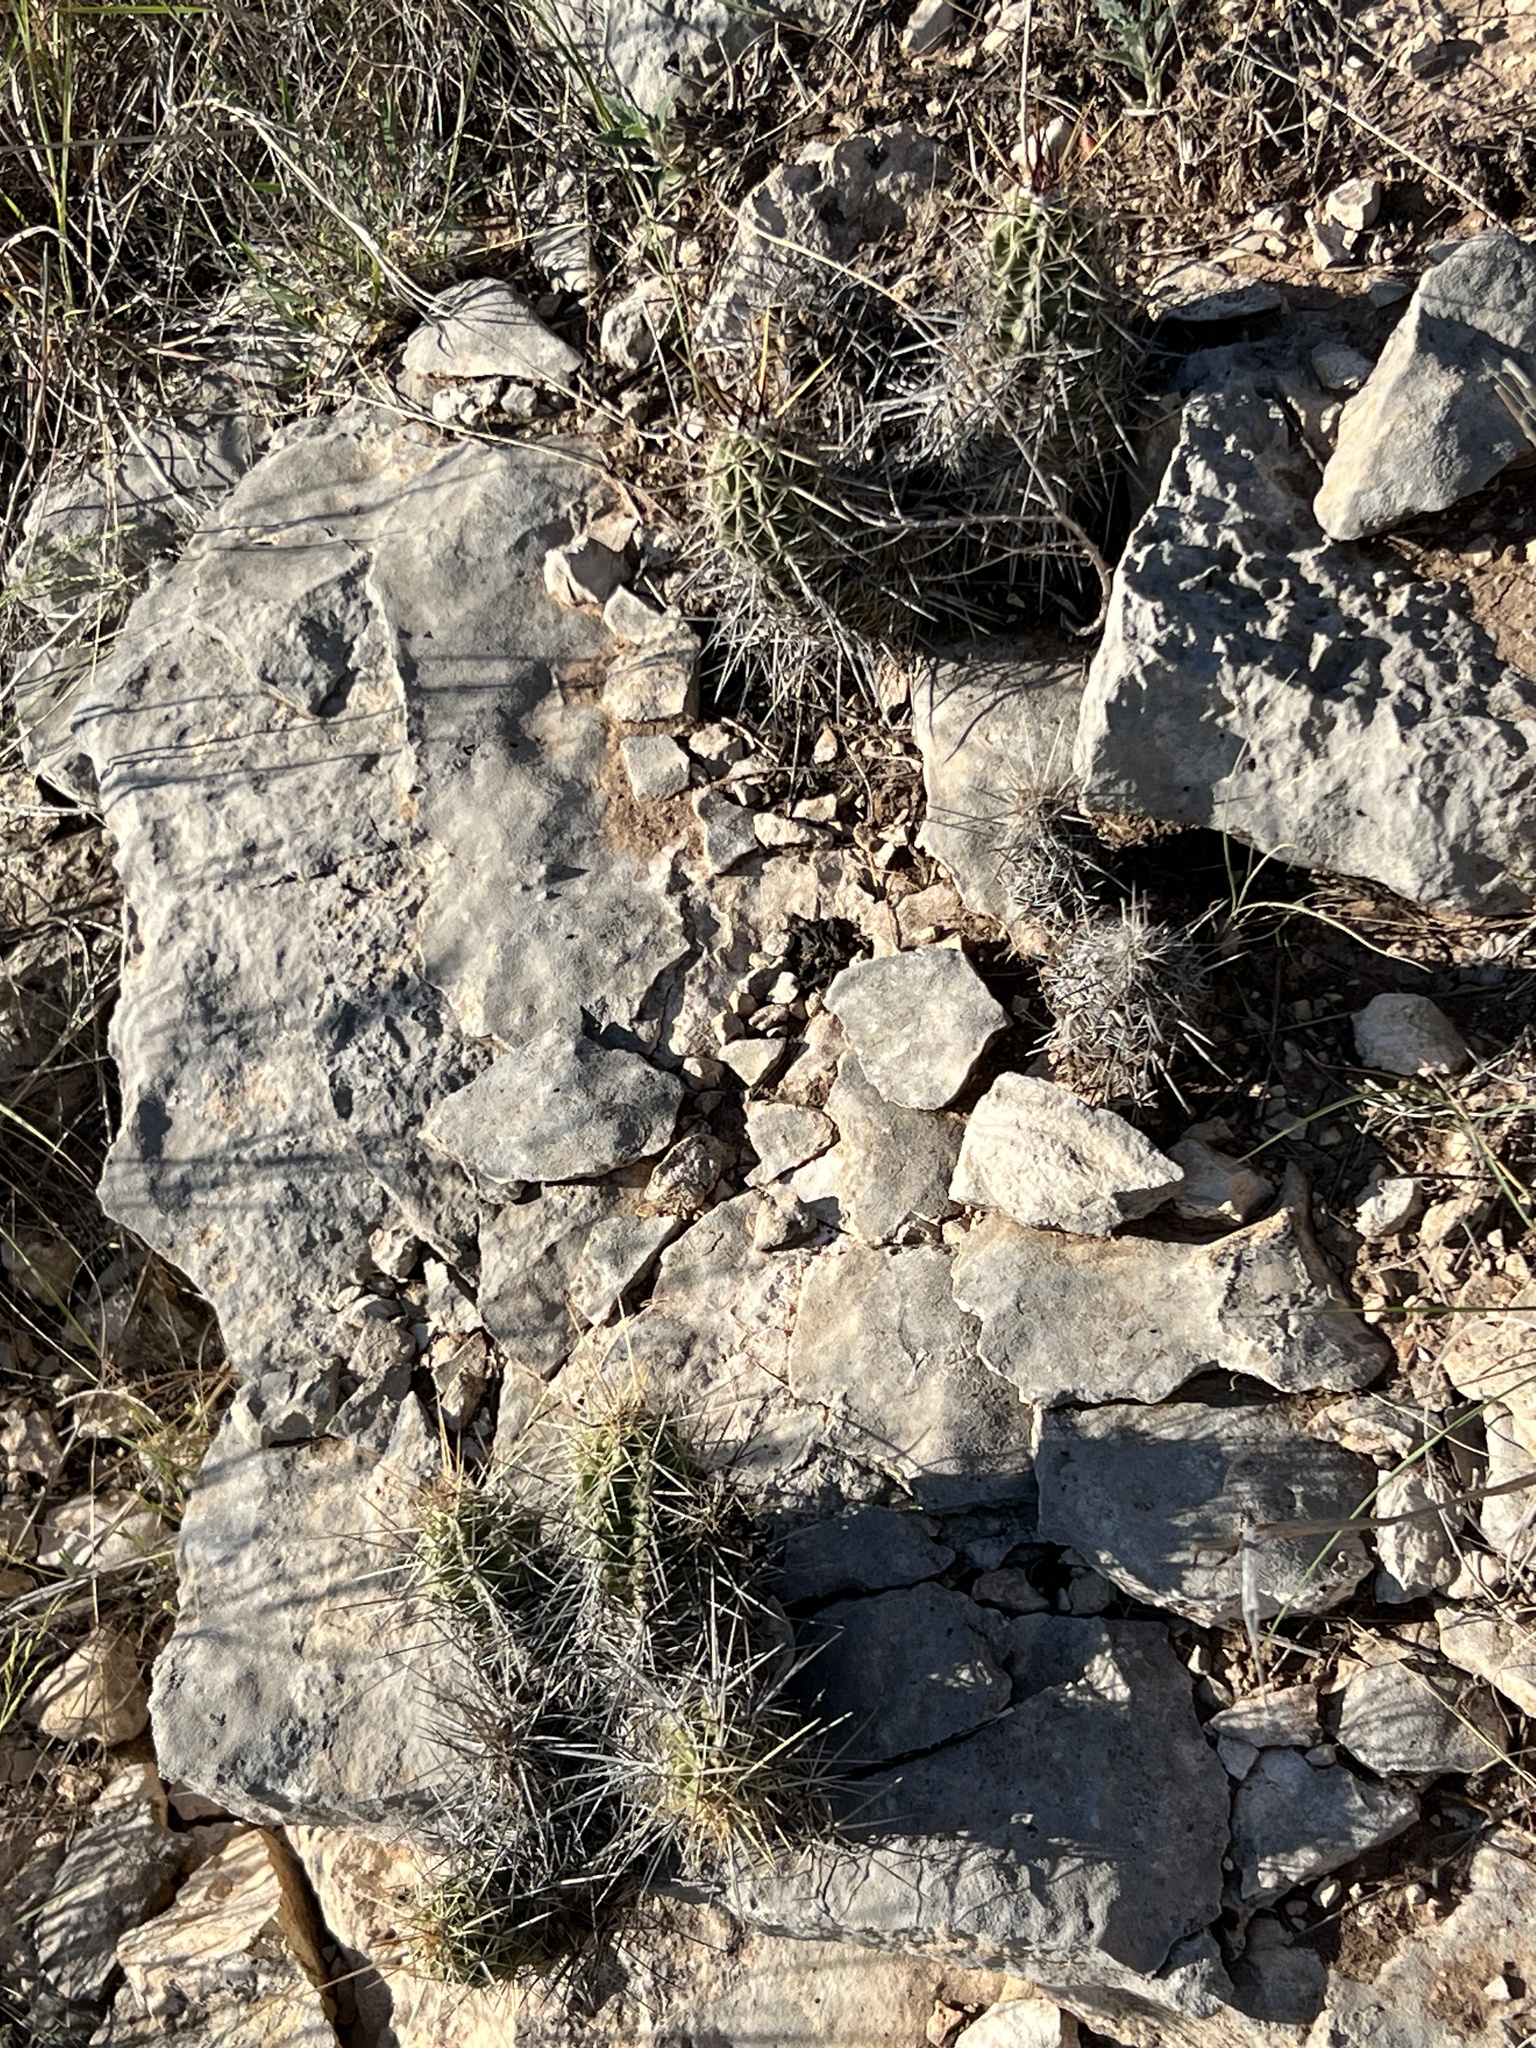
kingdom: Plantae
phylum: Tracheophyta
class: Magnoliopsida
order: Caryophyllales
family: Cactaceae
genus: Echinocereus
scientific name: Echinocereus enneacanthus
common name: Pitaya
